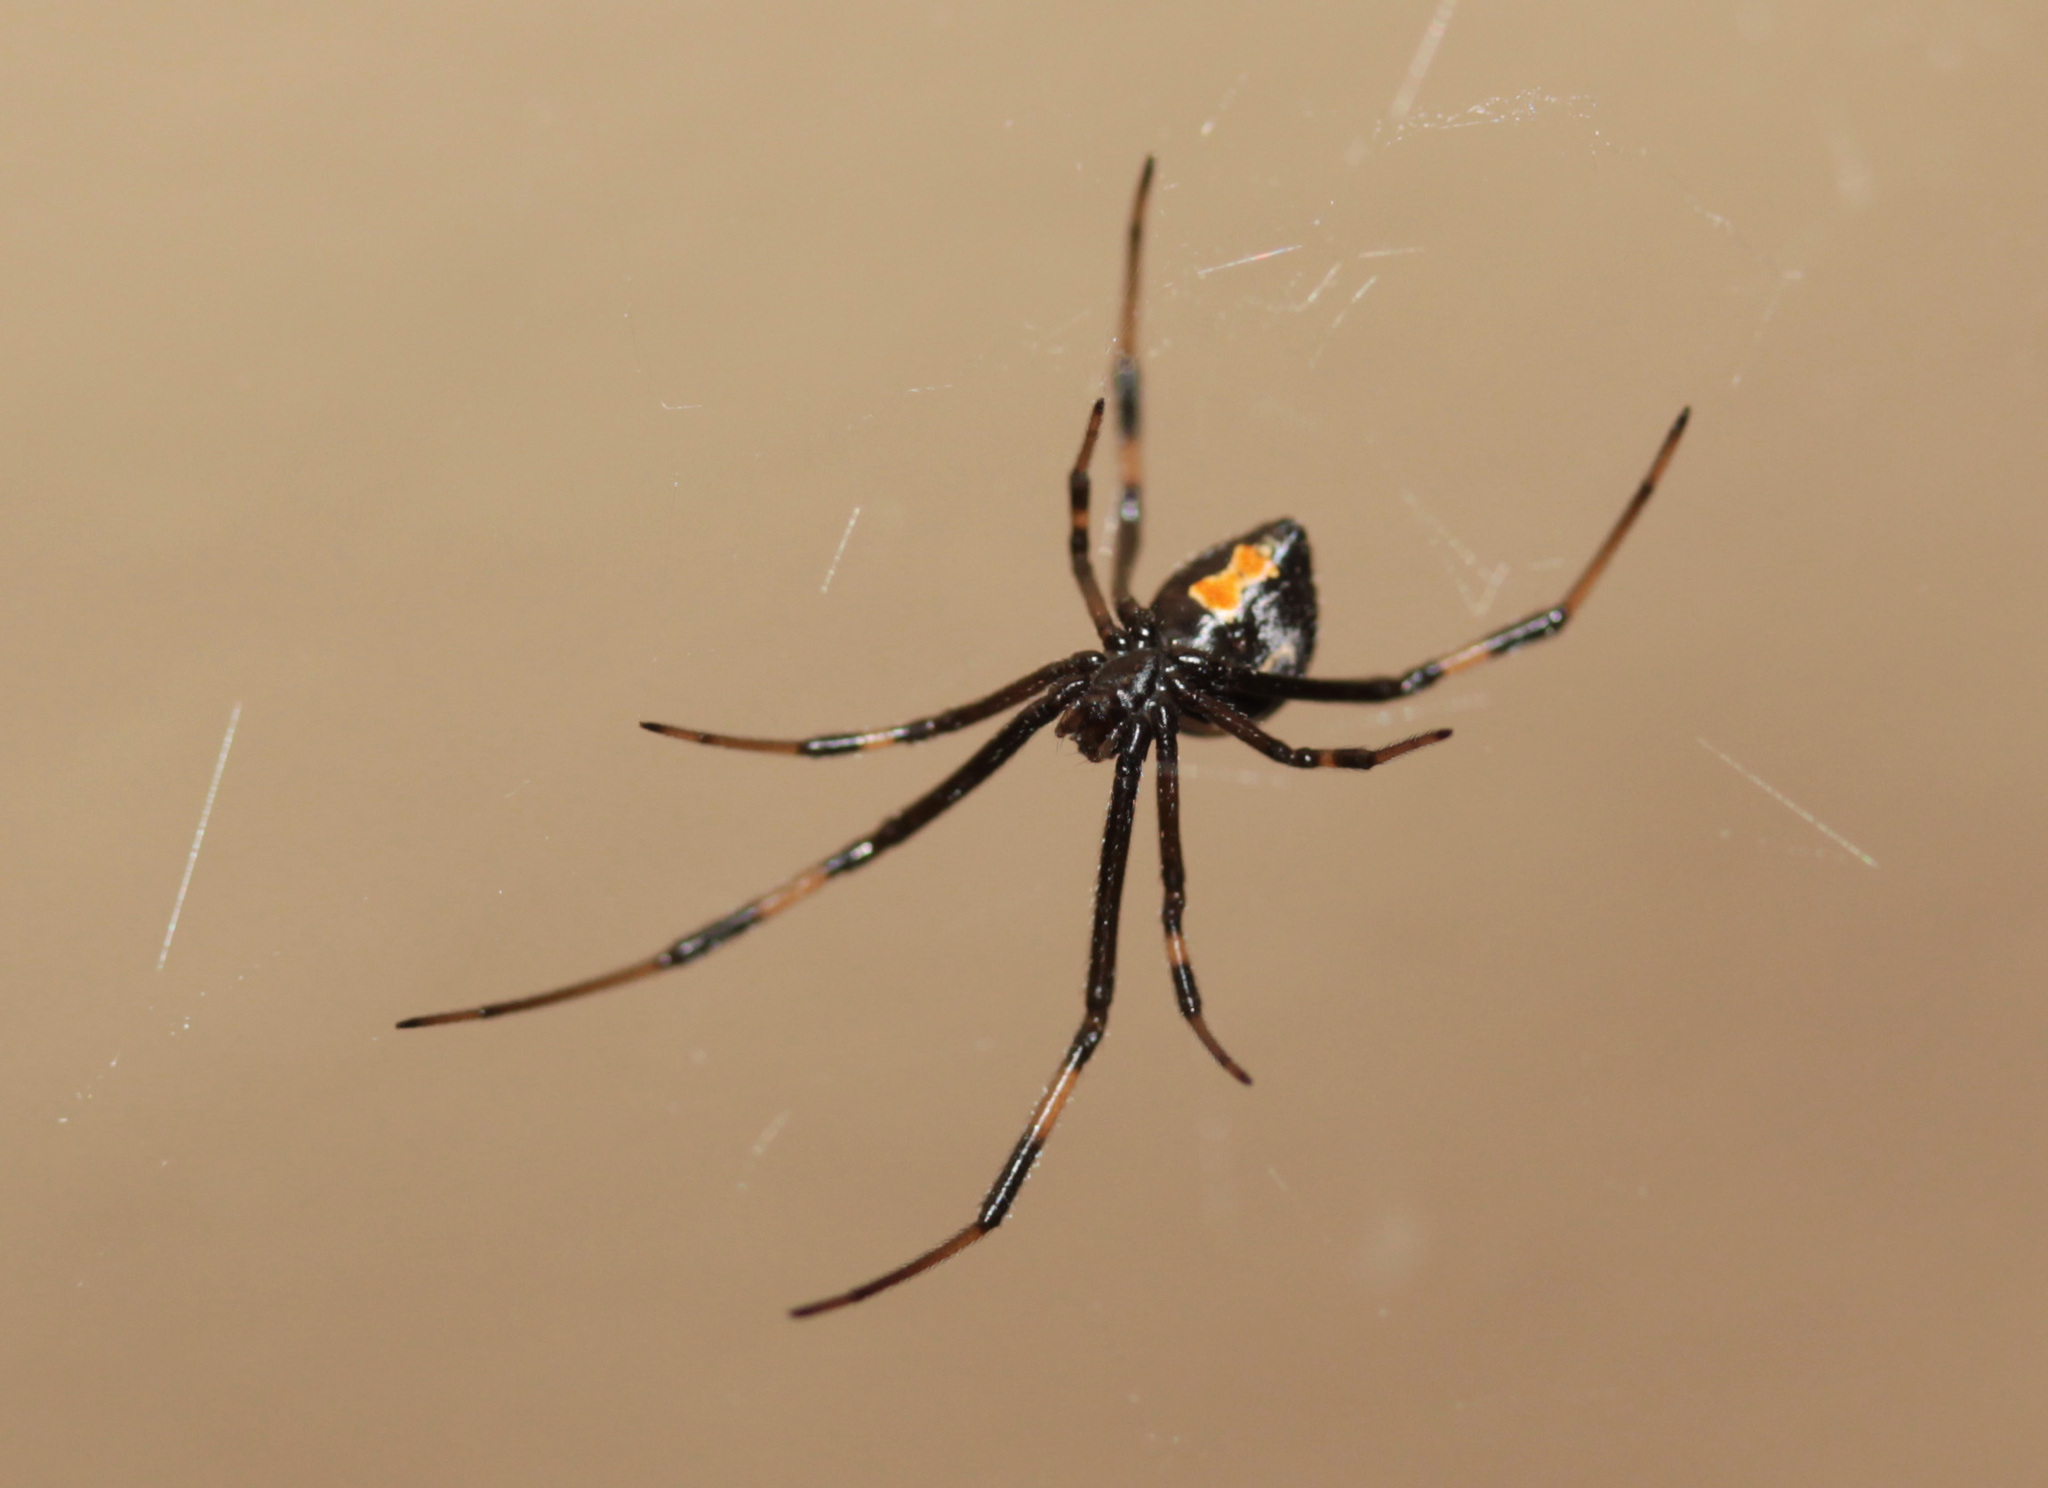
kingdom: Animalia
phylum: Arthropoda
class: Arachnida
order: Araneae
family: Theridiidae
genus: Latrodectus
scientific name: Latrodectus geometricus
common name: Brown widow spider
